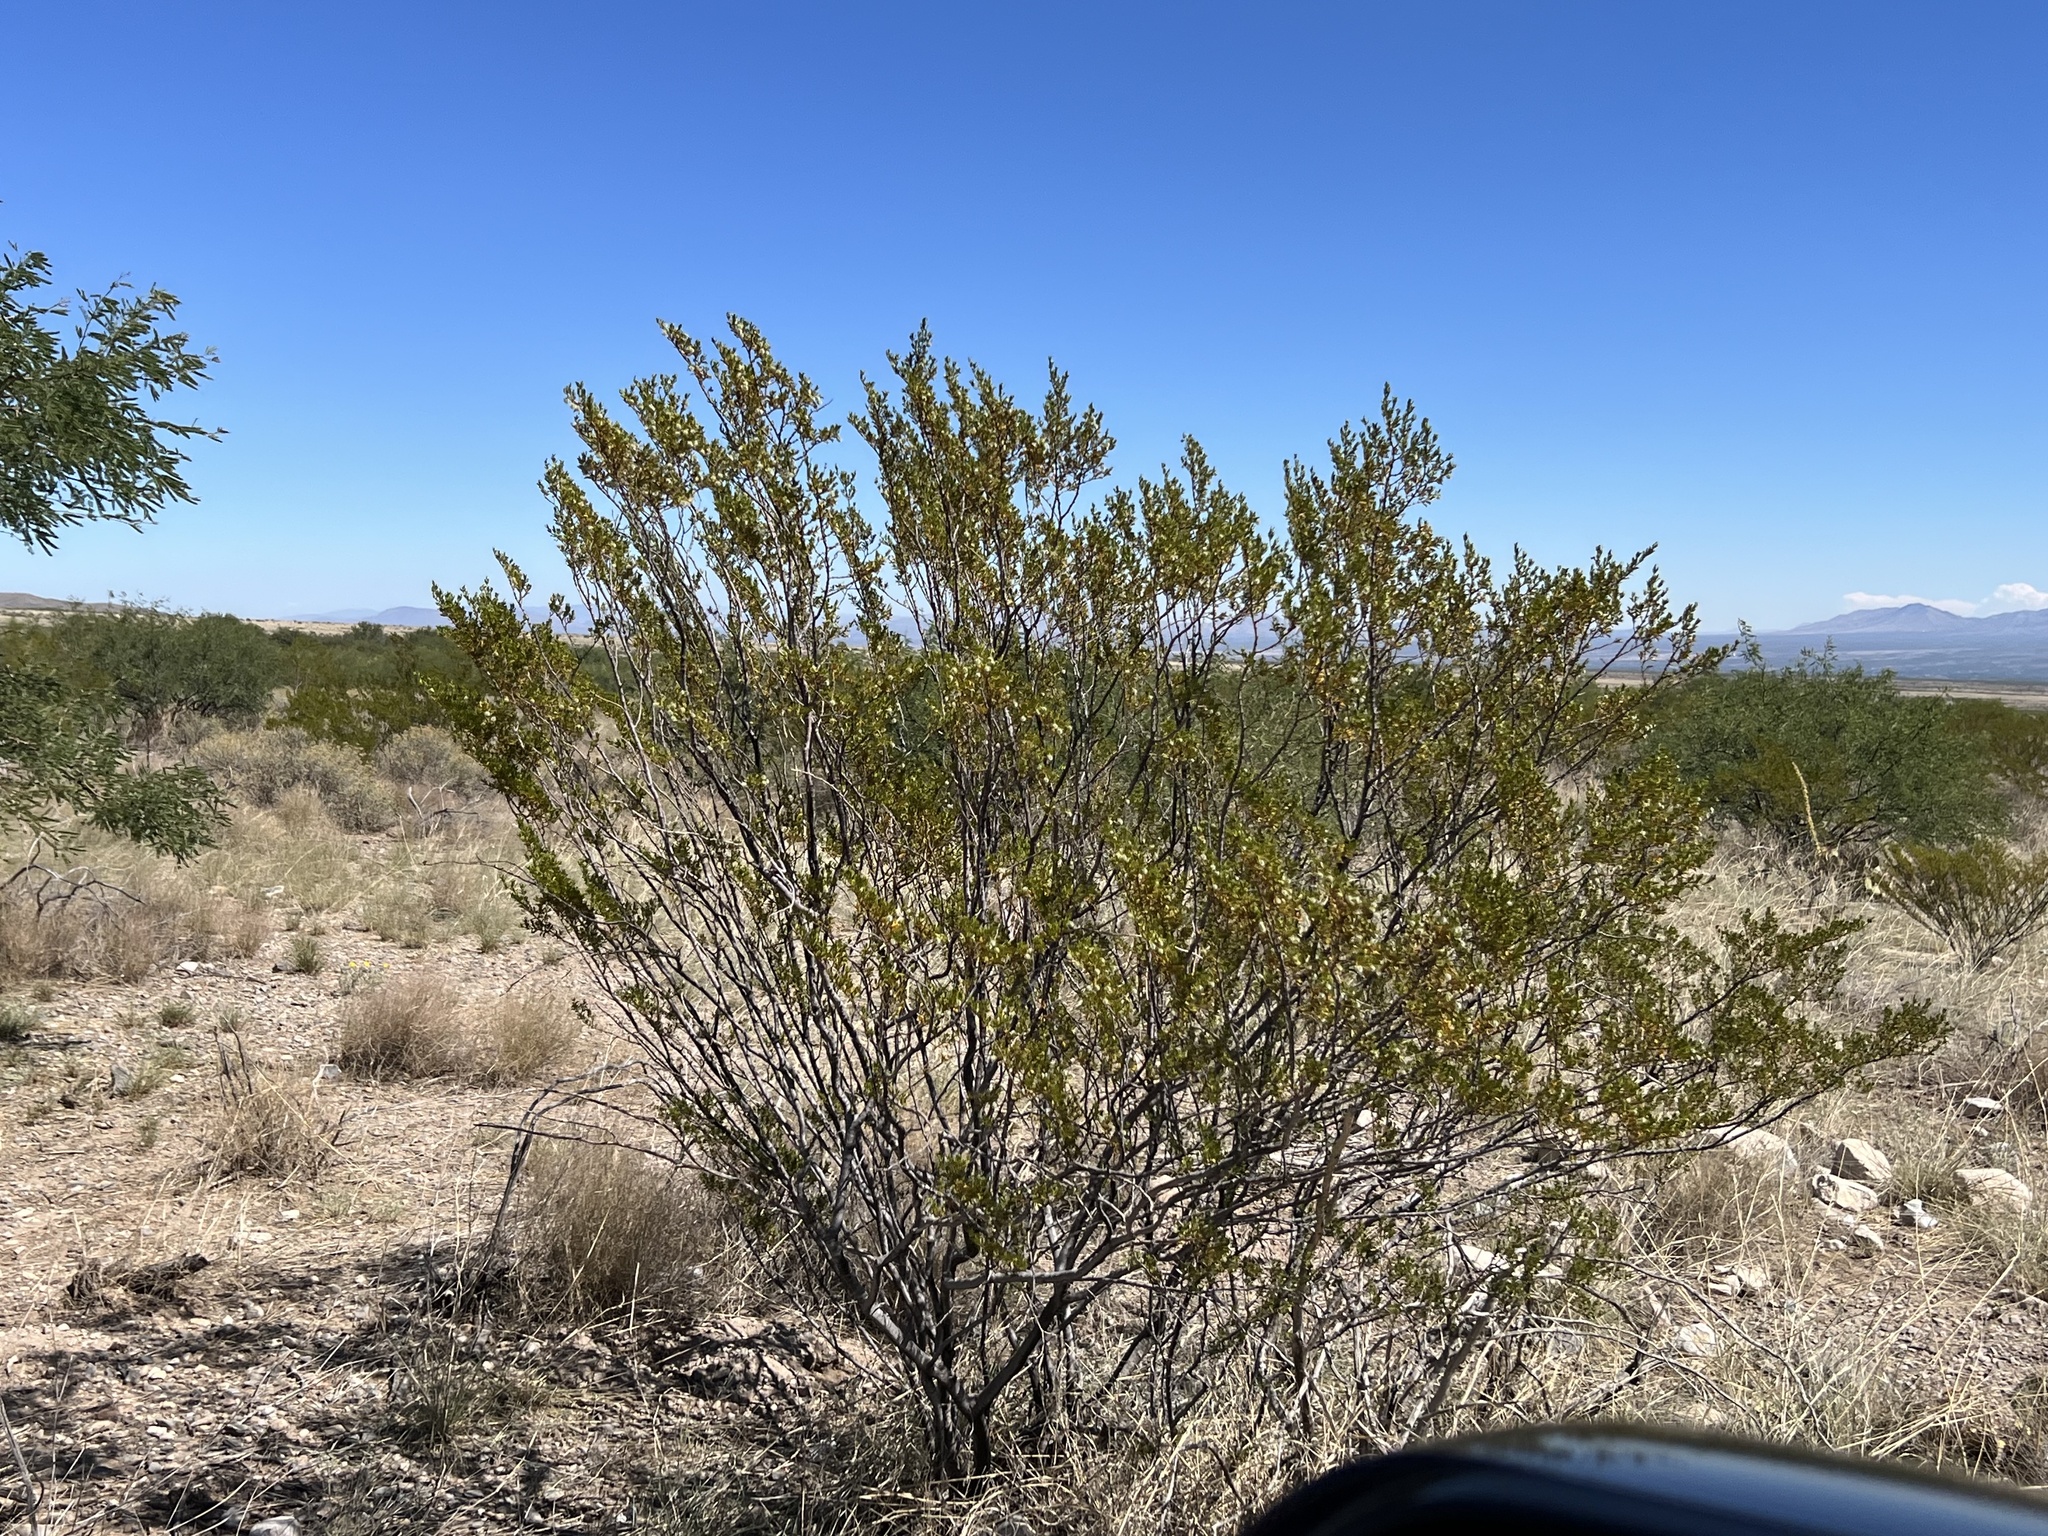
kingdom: Plantae
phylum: Tracheophyta
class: Magnoliopsida
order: Zygophyllales
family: Zygophyllaceae
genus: Larrea
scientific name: Larrea tridentata
